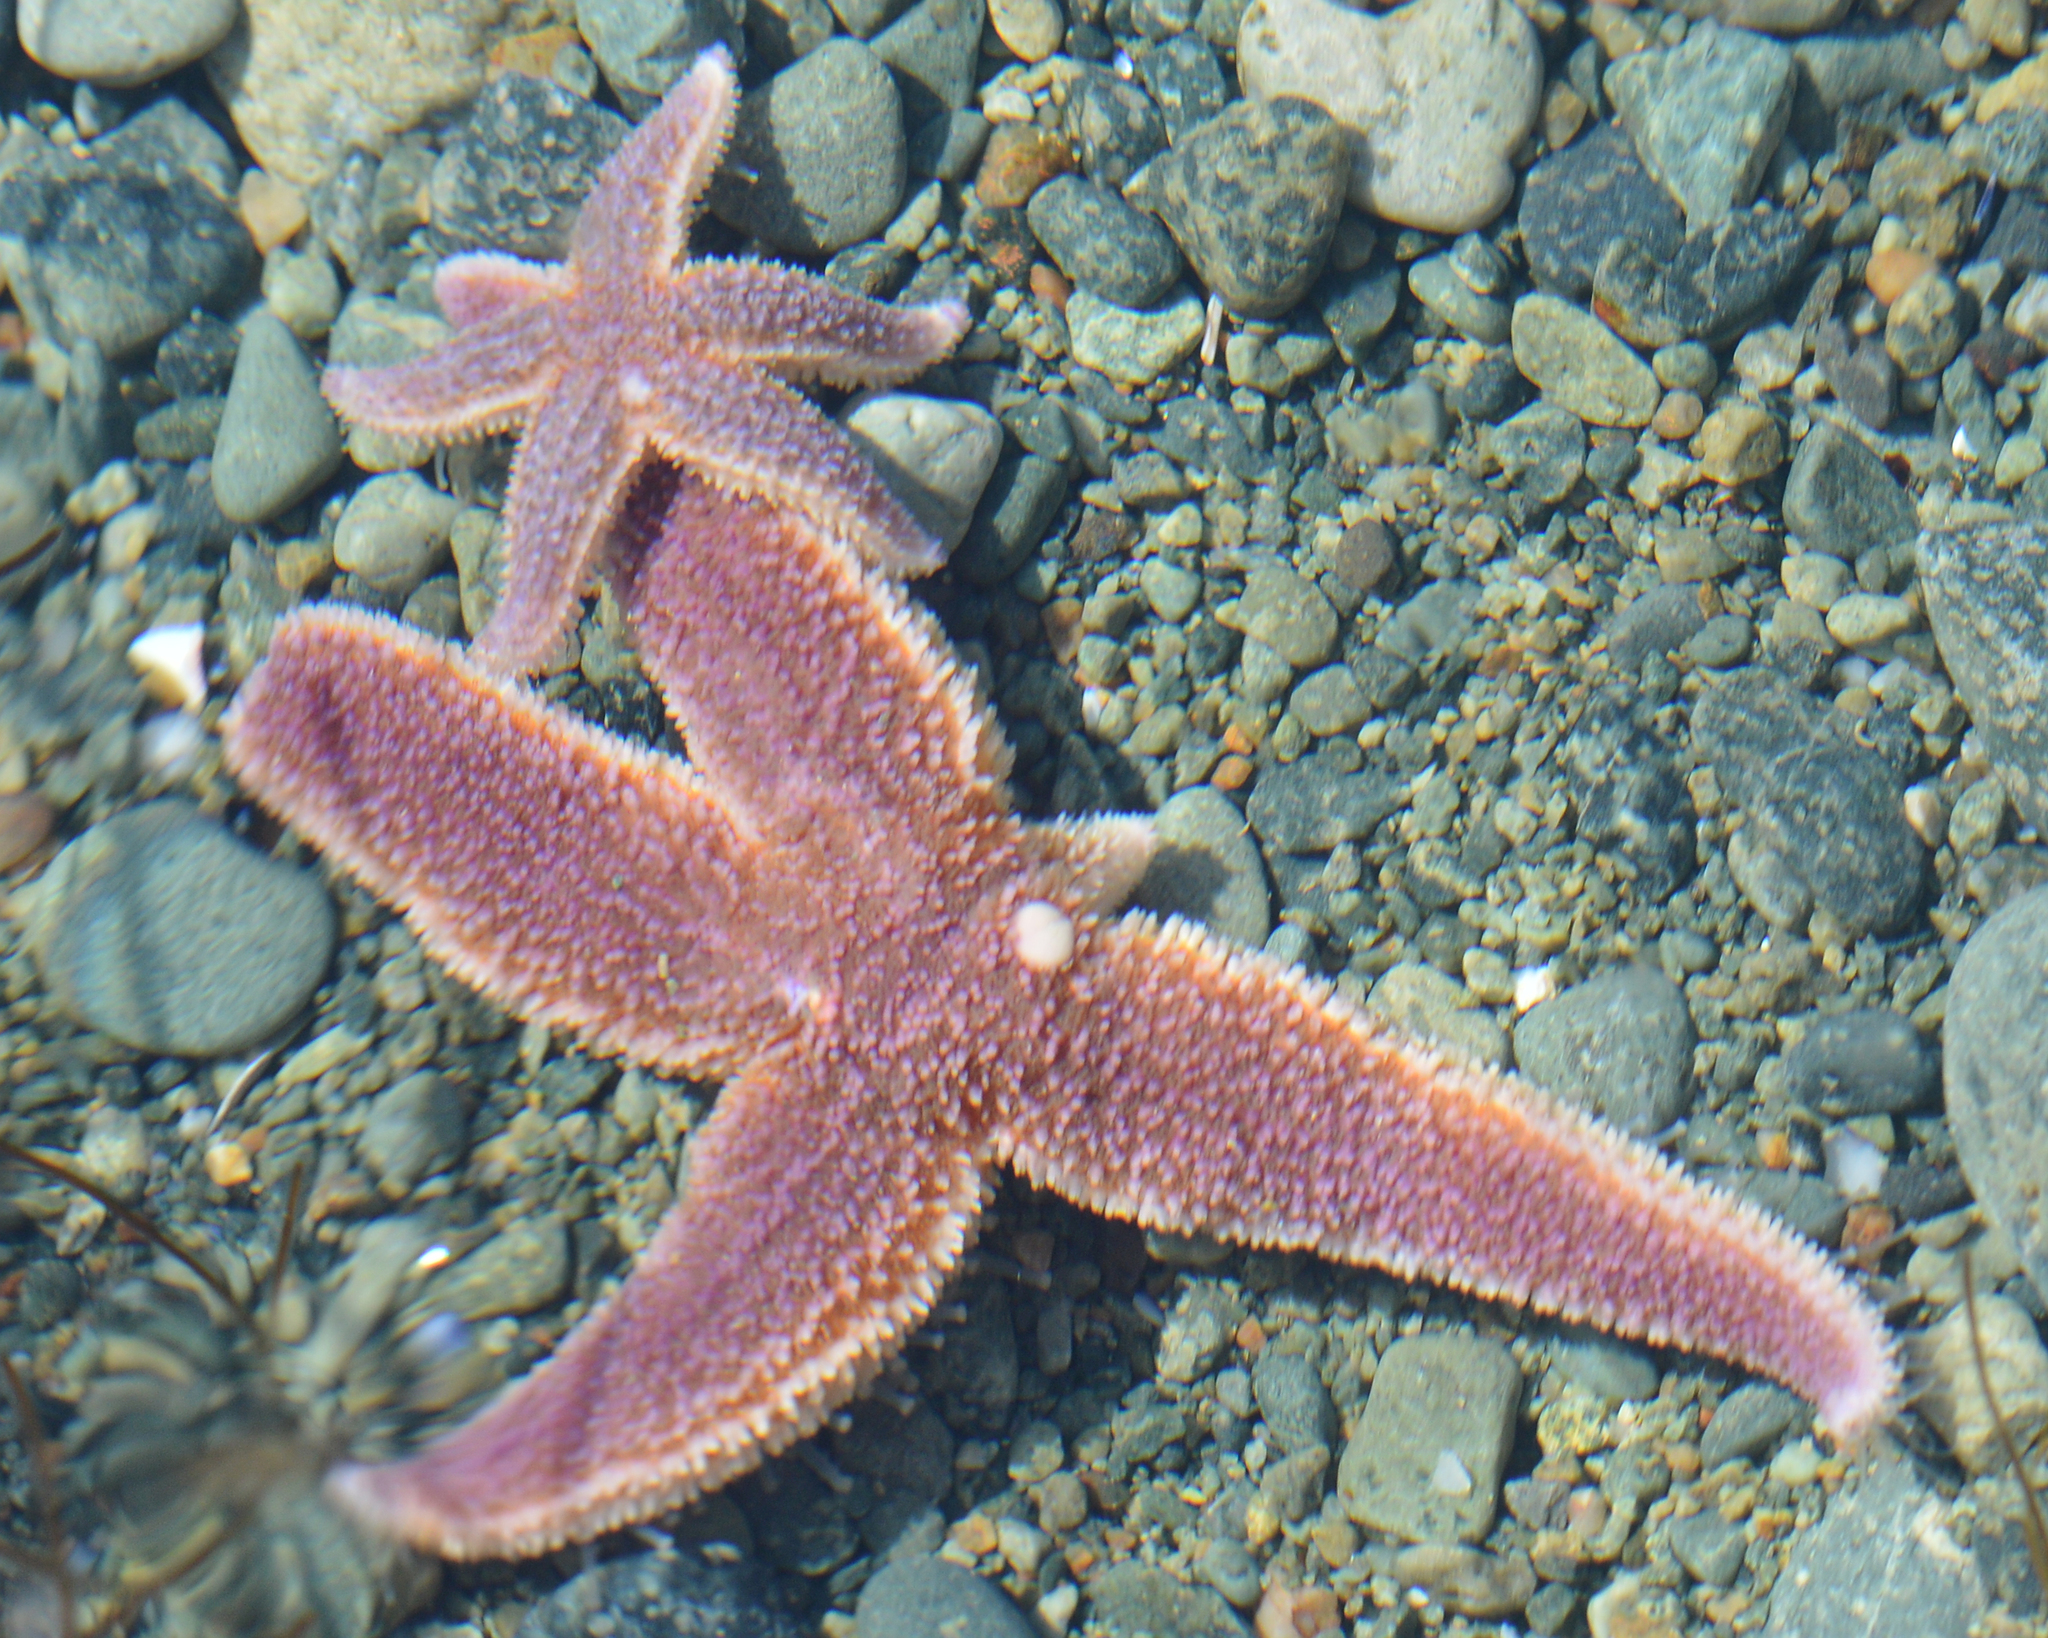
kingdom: Animalia
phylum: Echinodermata
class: Asteroidea
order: Forcipulatida
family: Asteriidae
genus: Asterias
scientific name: Asterias rubens
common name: Common starfish
